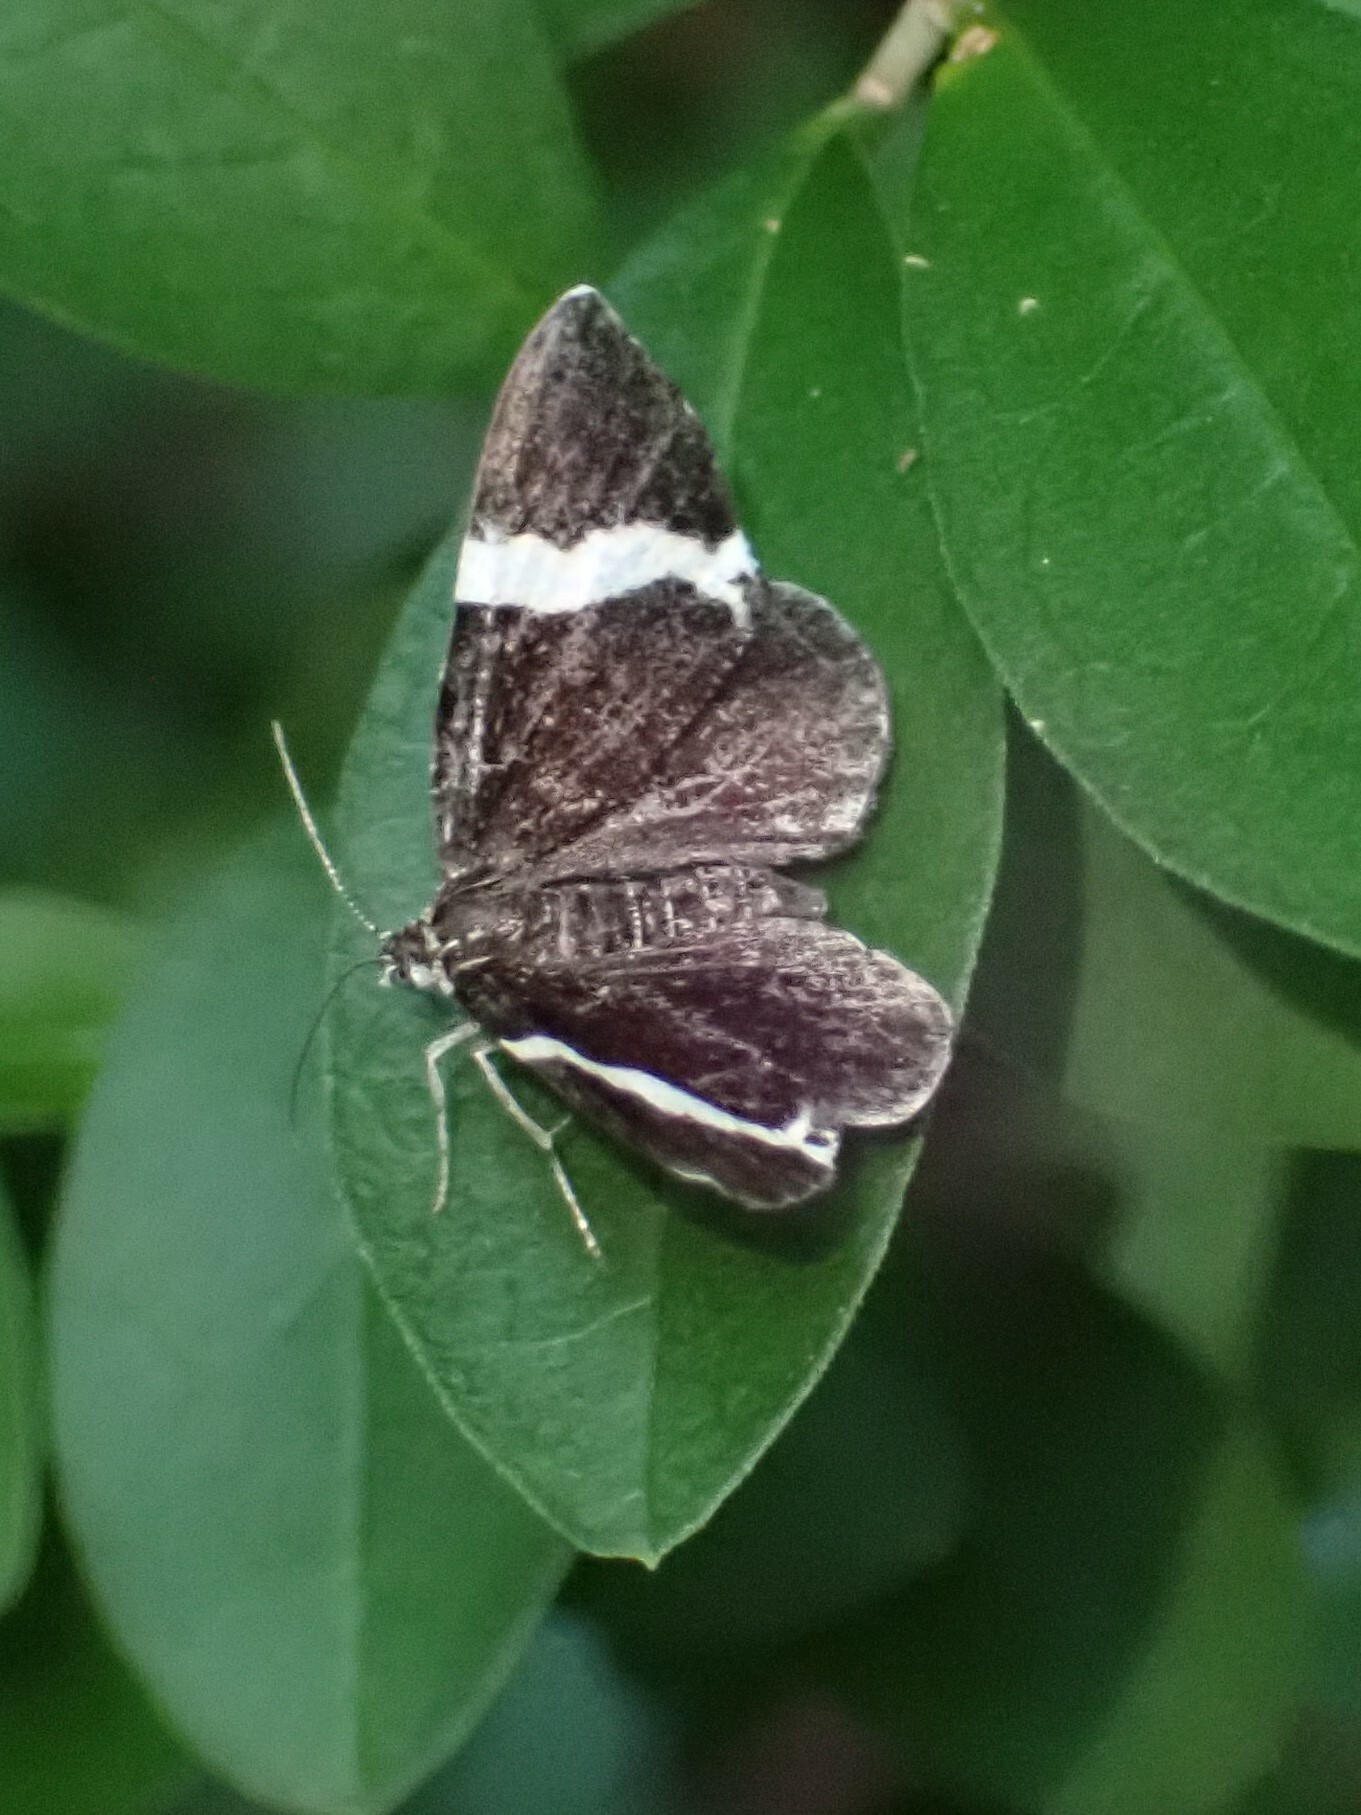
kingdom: Animalia
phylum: Arthropoda
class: Insecta
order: Lepidoptera
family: Geometridae
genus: Trichodezia
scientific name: Trichodezia albovittata
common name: White striped black
